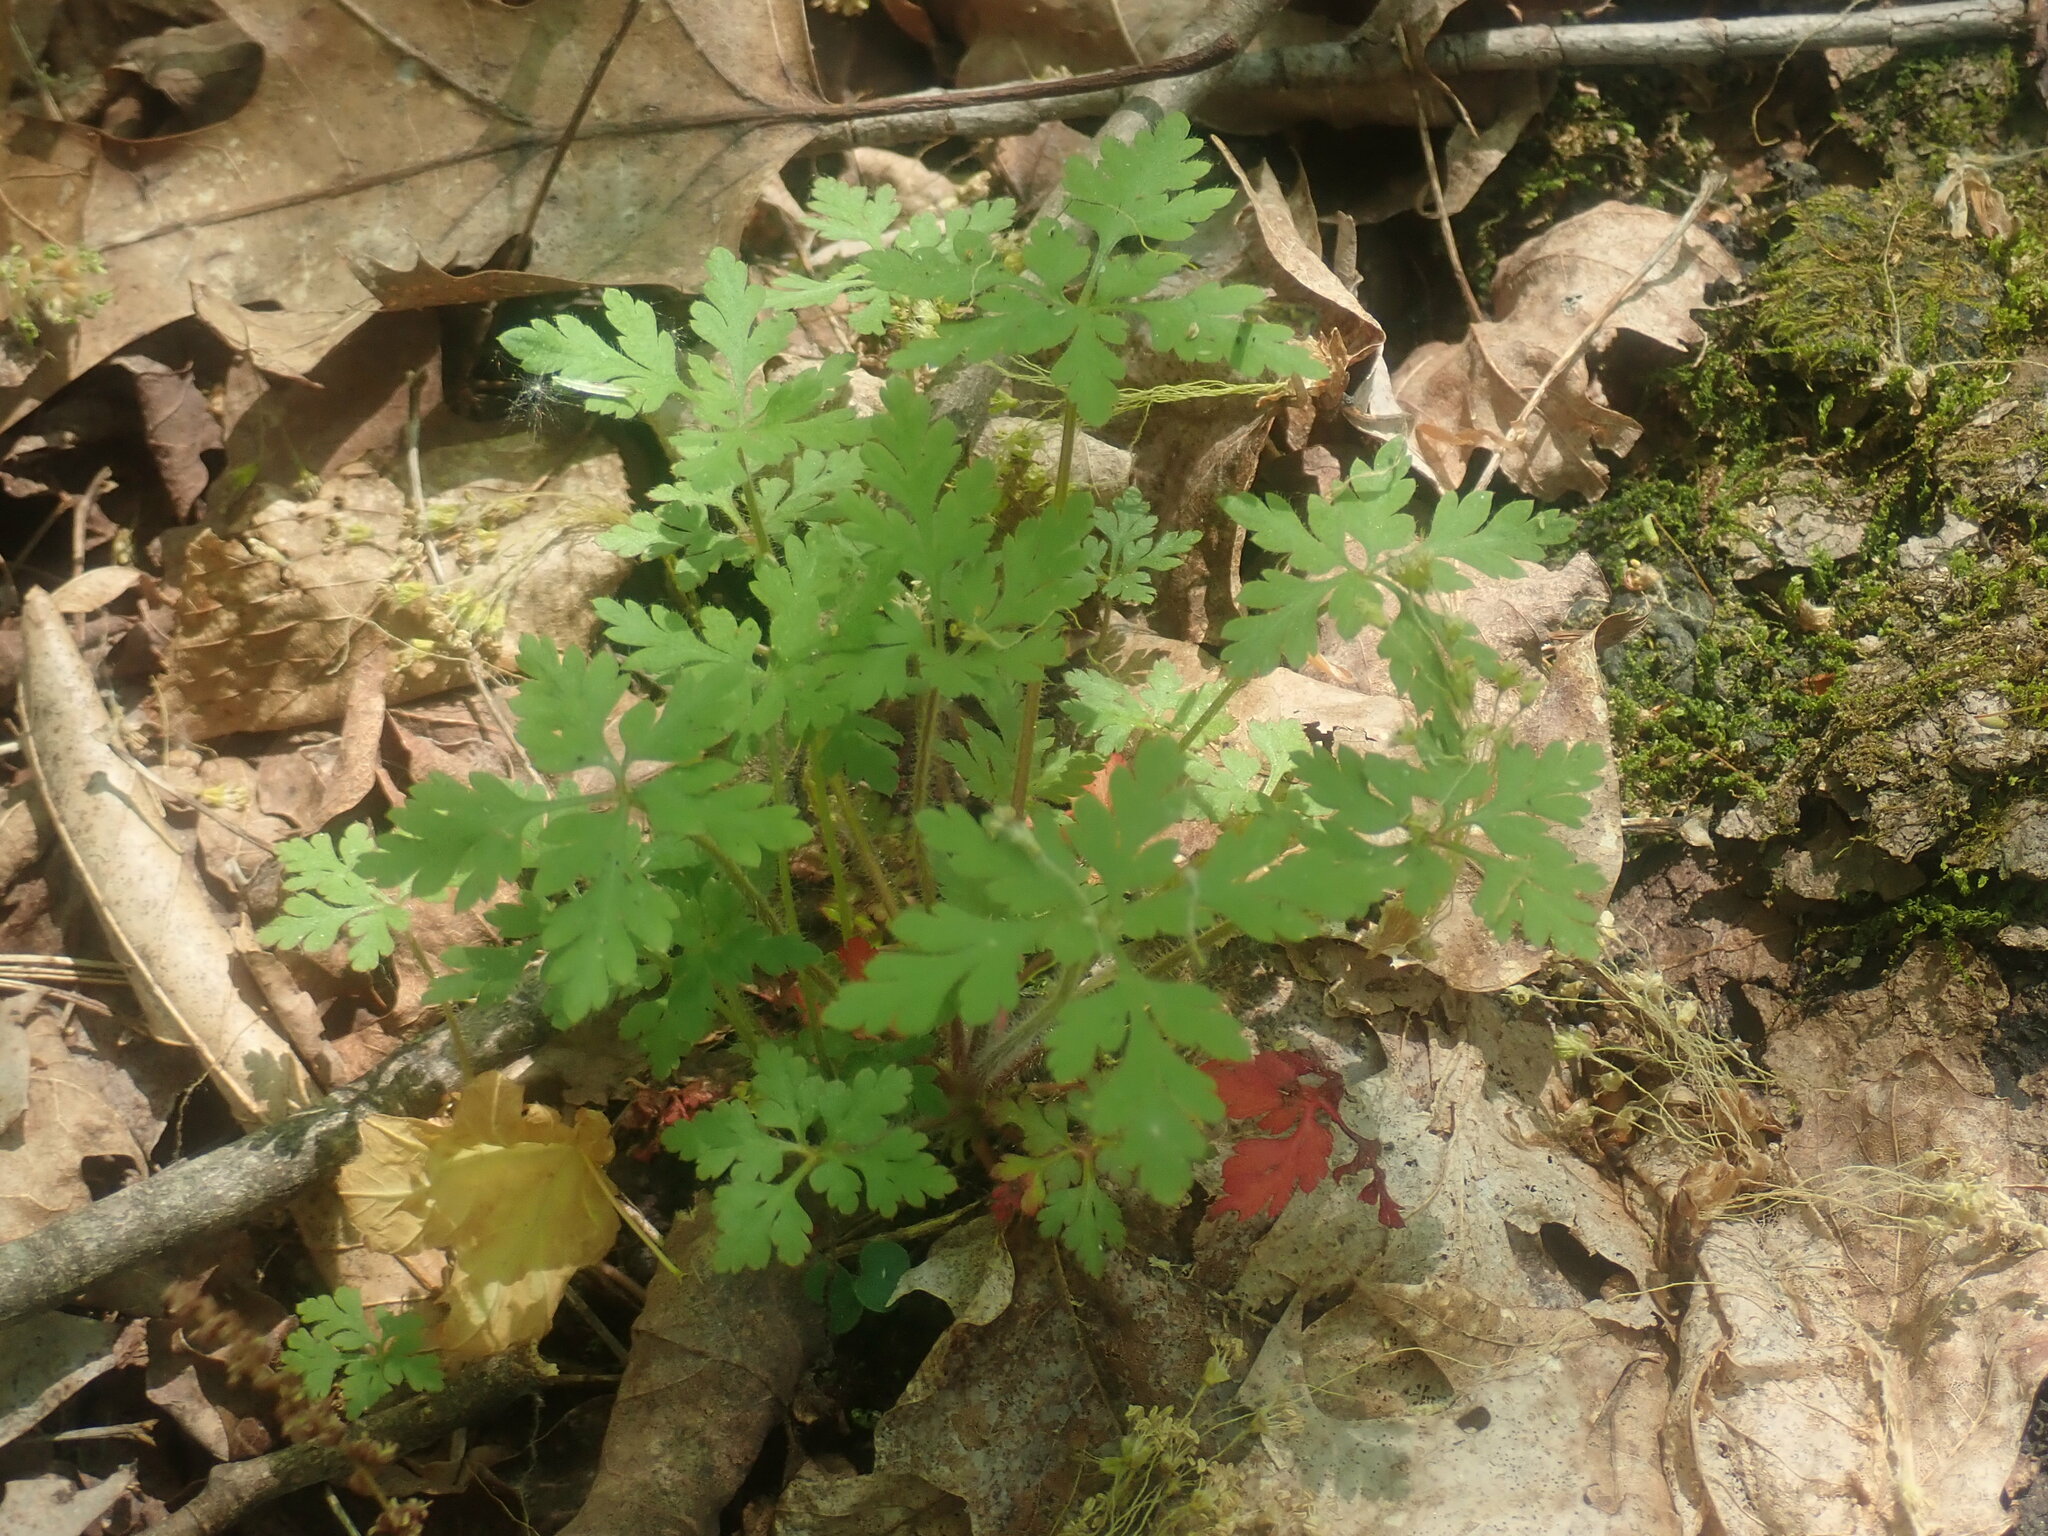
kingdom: Plantae
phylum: Tracheophyta
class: Magnoliopsida
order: Geraniales
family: Geraniaceae
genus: Geranium
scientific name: Geranium robertianum
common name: Herb-robert
